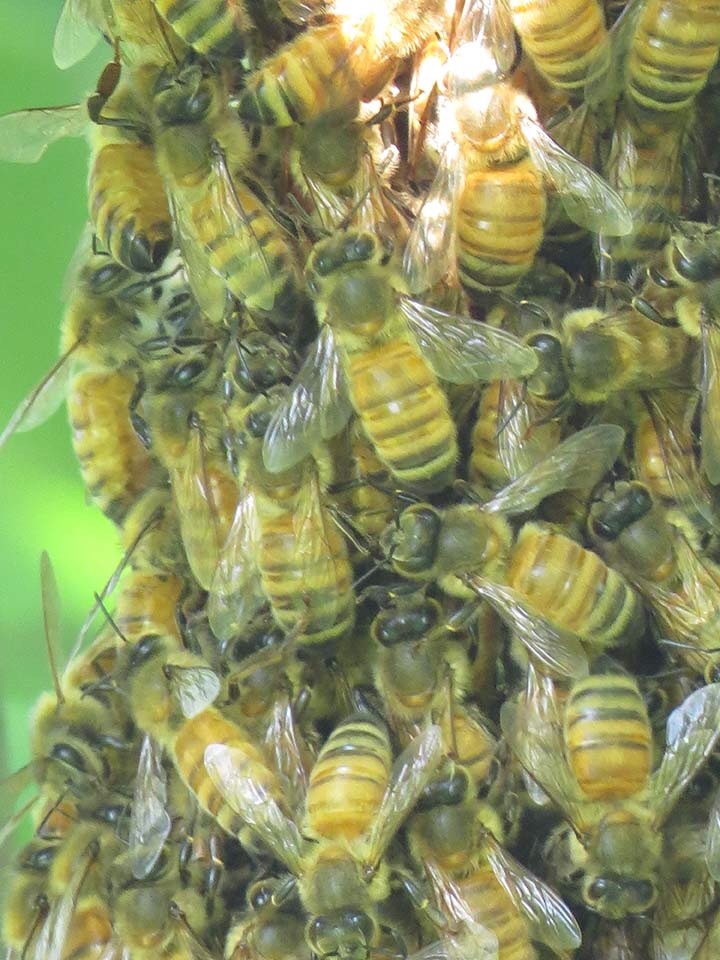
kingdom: Animalia
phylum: Arthropoda
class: Insecta
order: Hymenoptera
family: Apidae
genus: Apis
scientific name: Apis mellifera
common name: Honey bee
